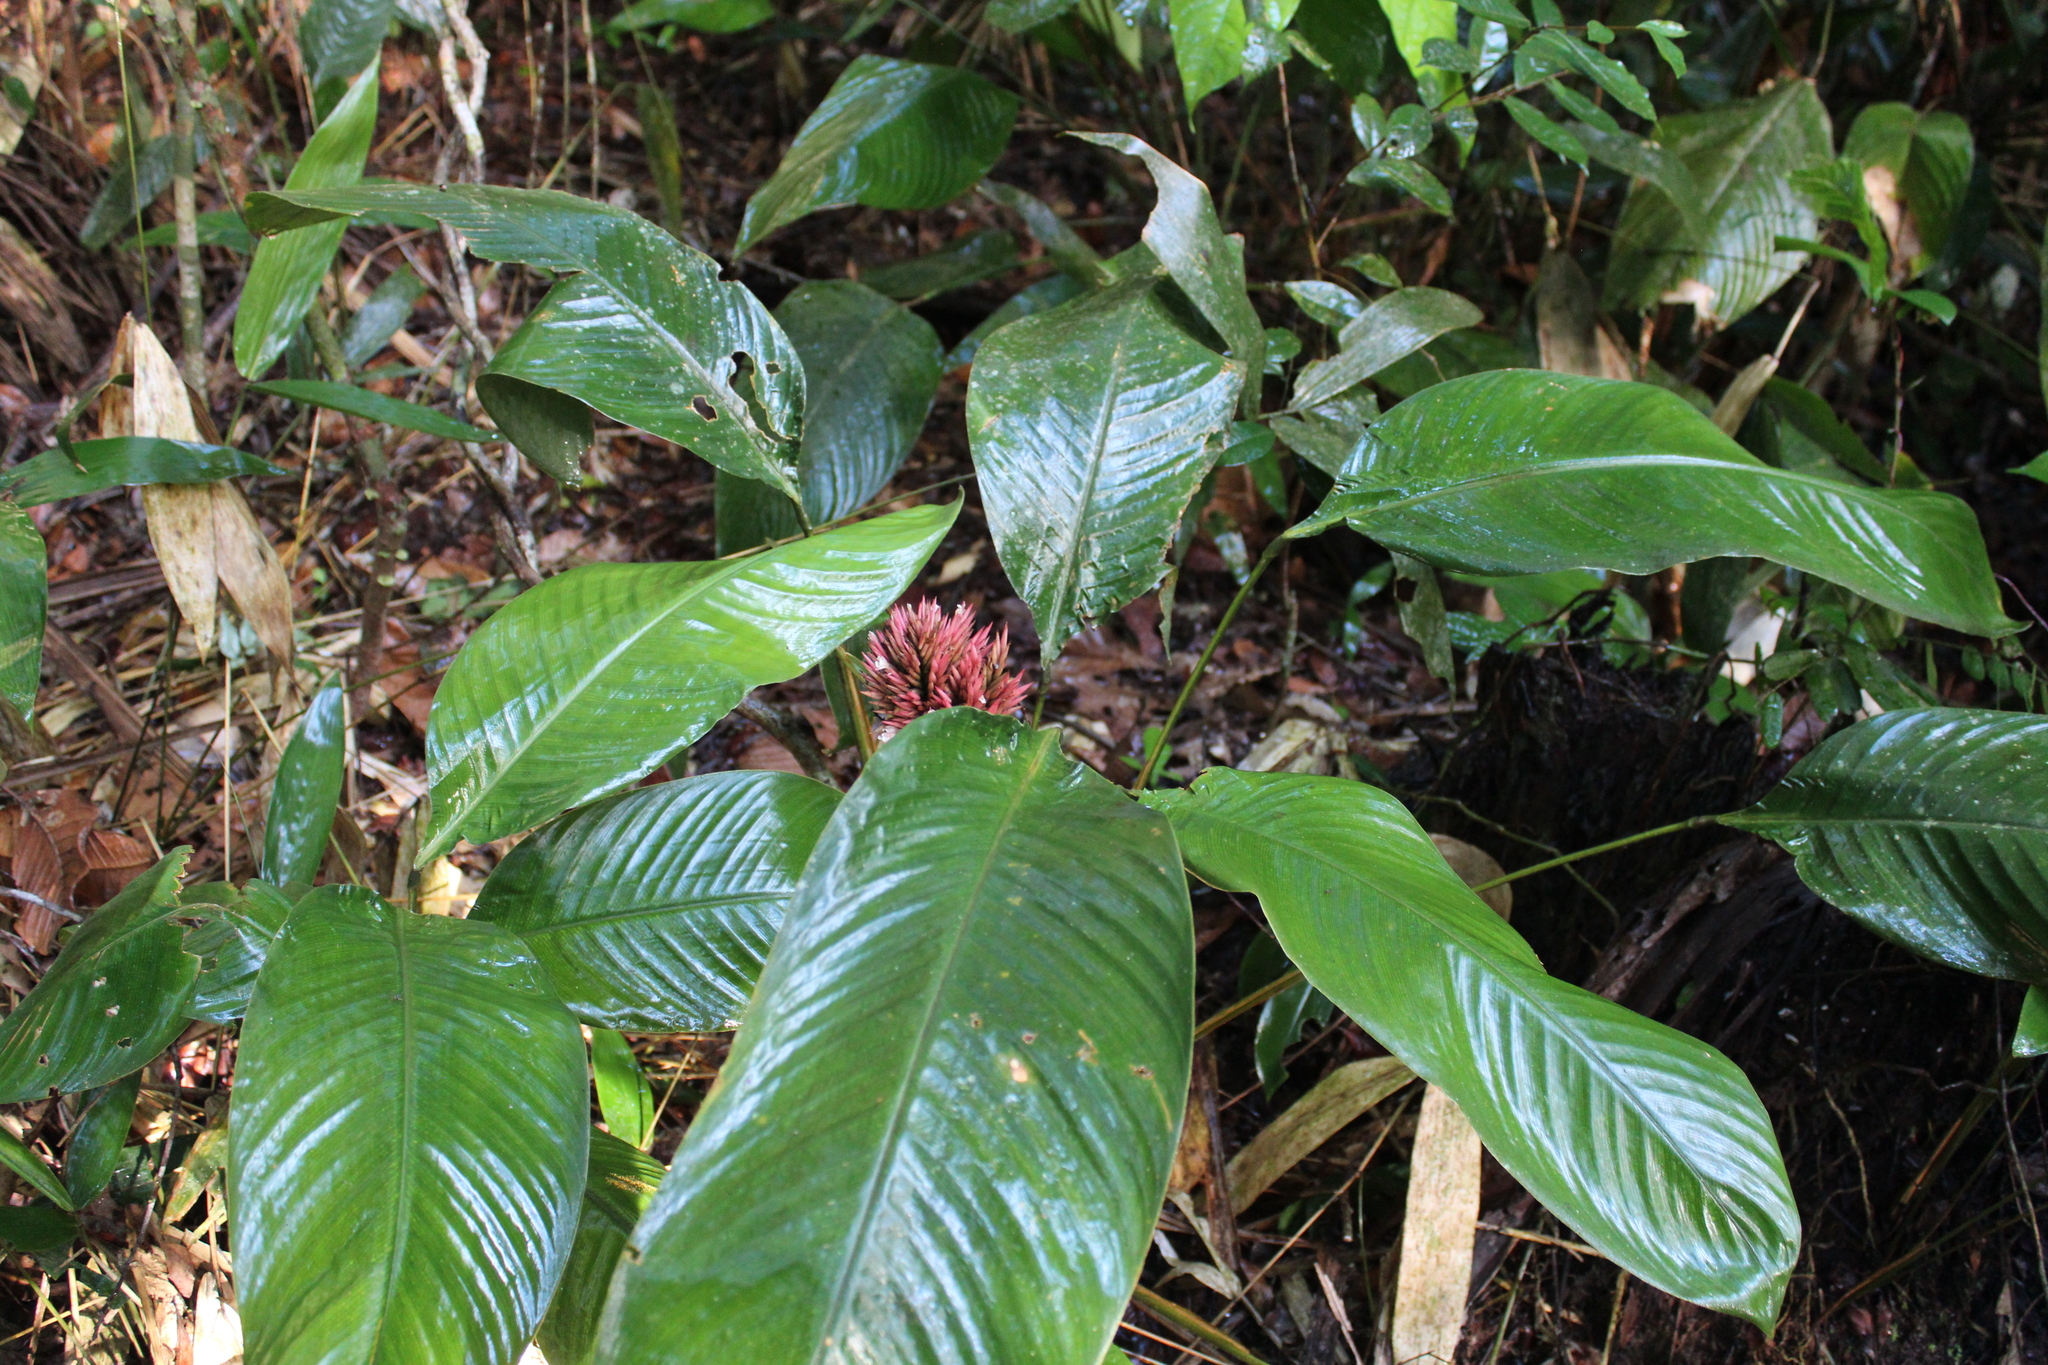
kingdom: Plantae
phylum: Tracheophyta
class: Liliopsida
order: Zingiberales
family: Marantaceae
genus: Monotagma
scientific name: Monotagma secundum
